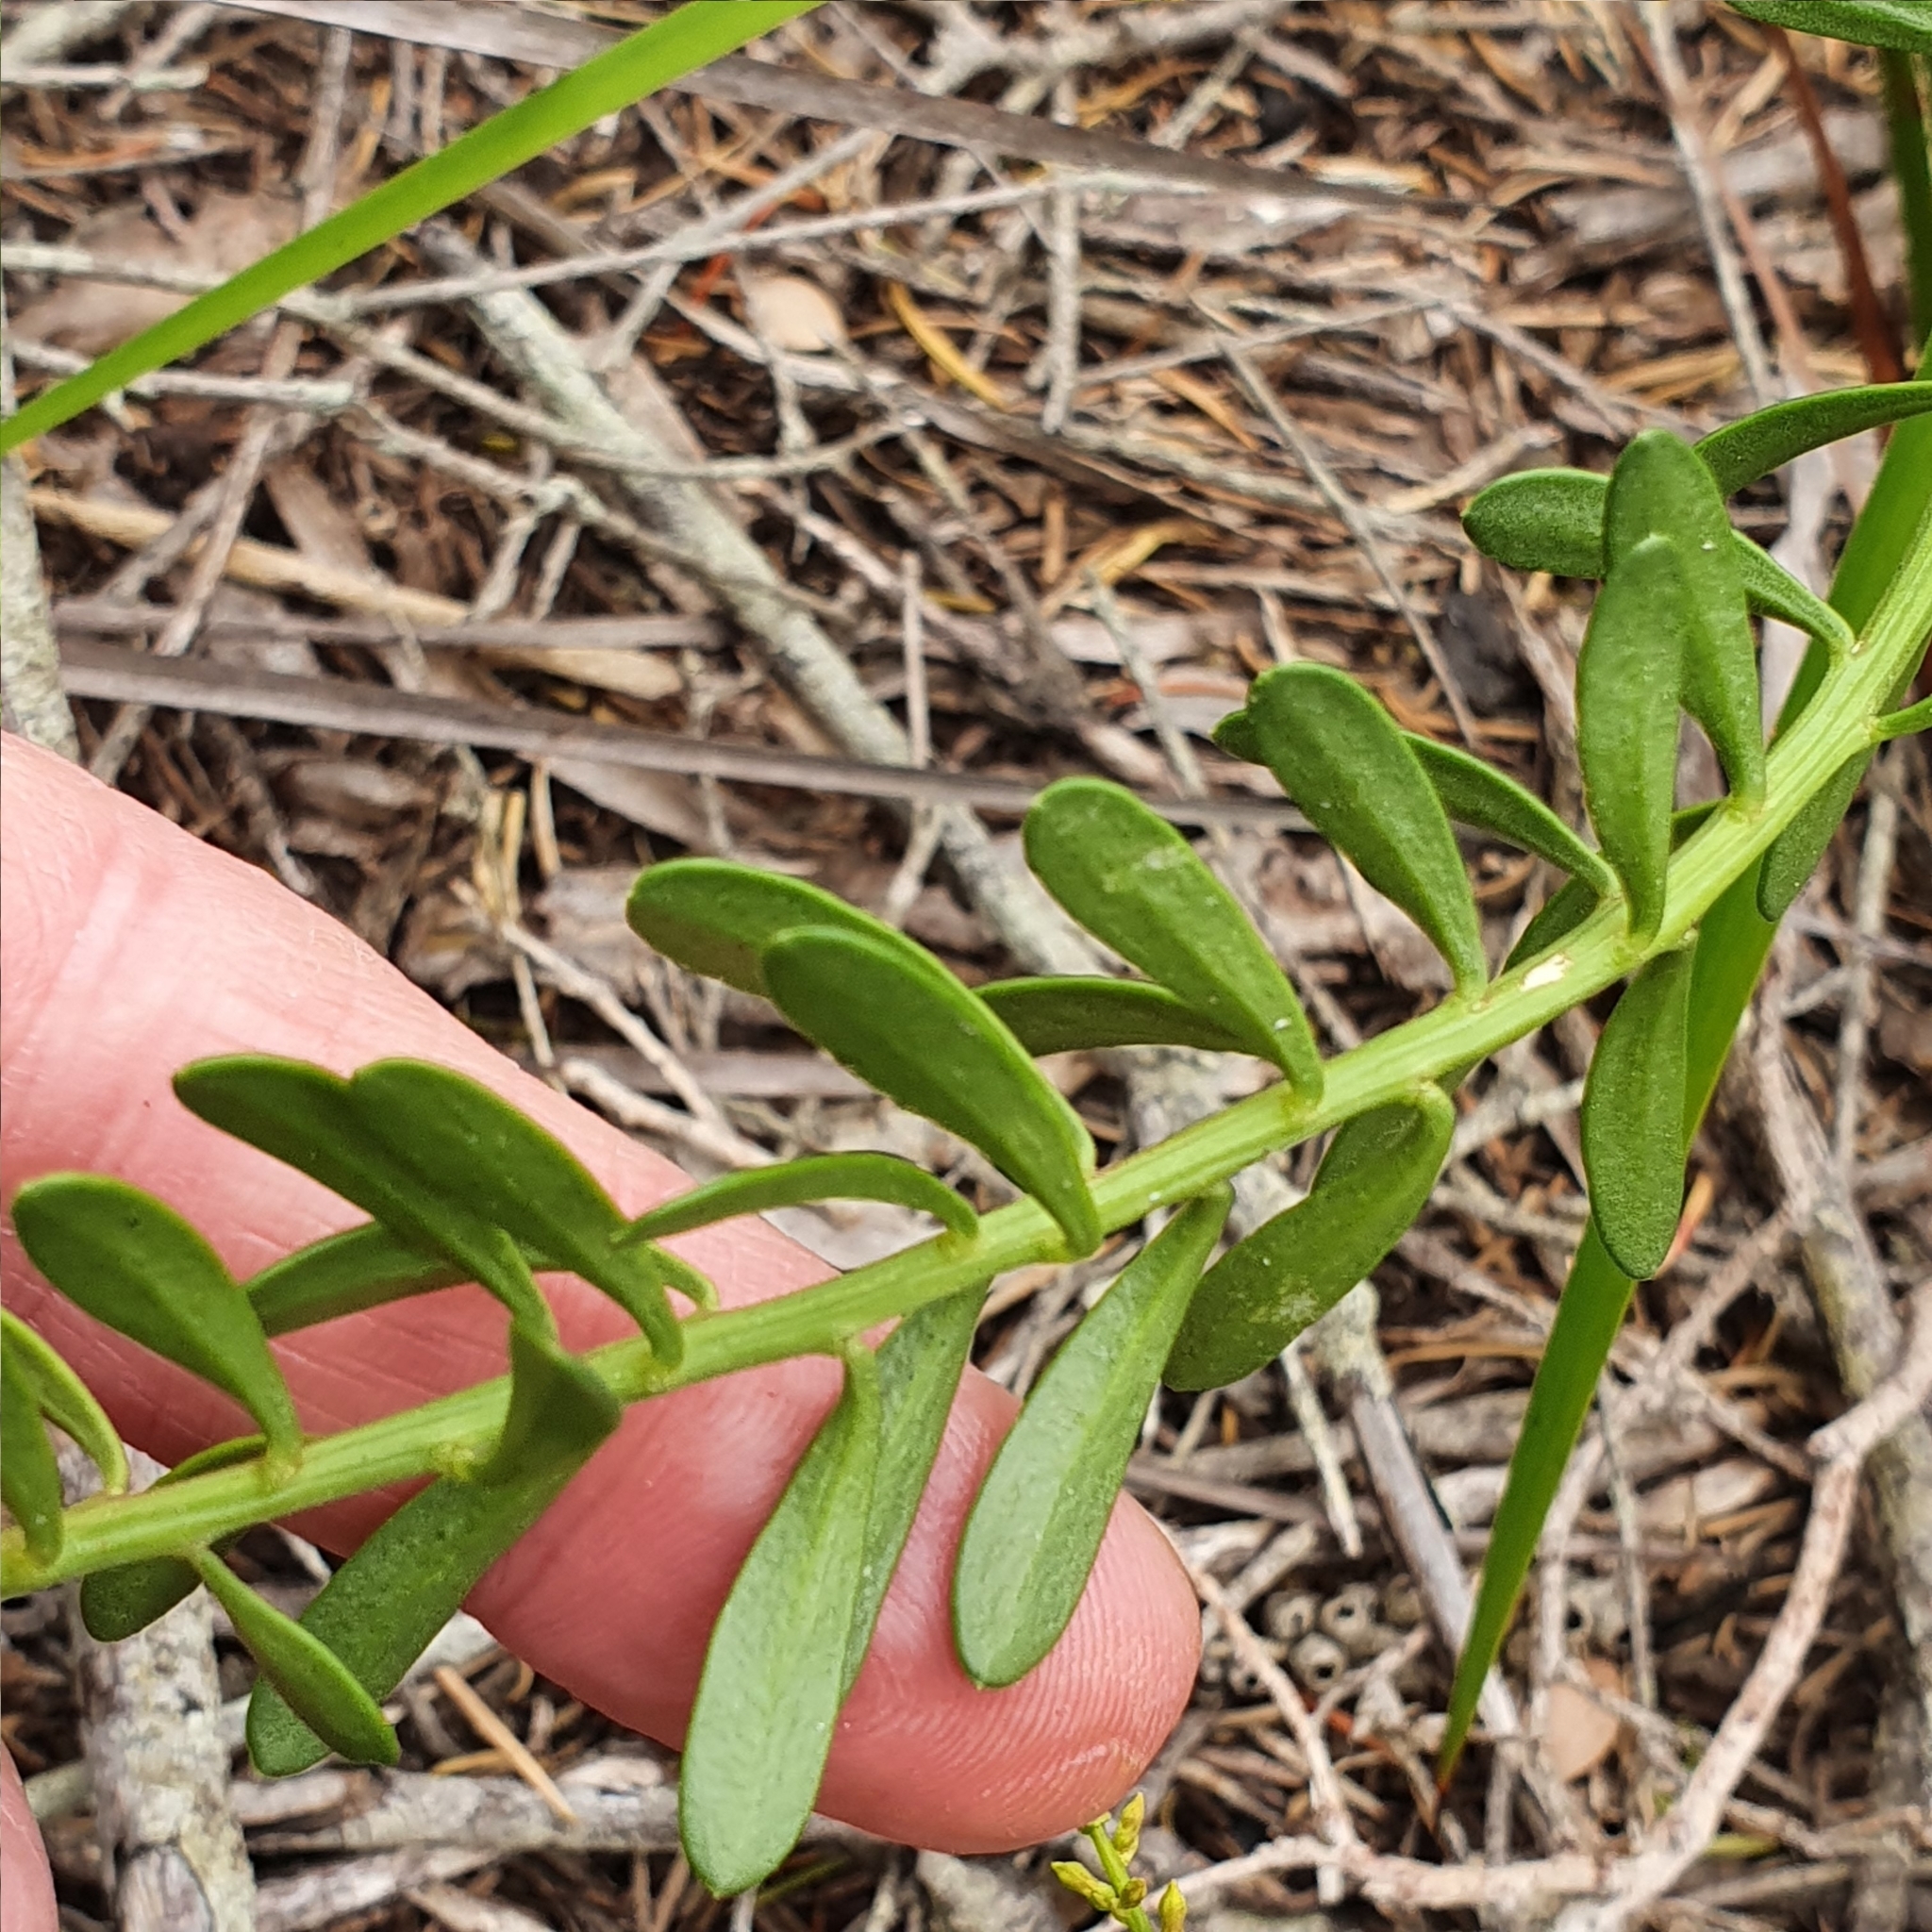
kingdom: Plantae
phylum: Tracheophyta
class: Magnoliopsida
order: Celastrales
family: Celastraceae
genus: Stackhousia
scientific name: Stackhousia viminea
